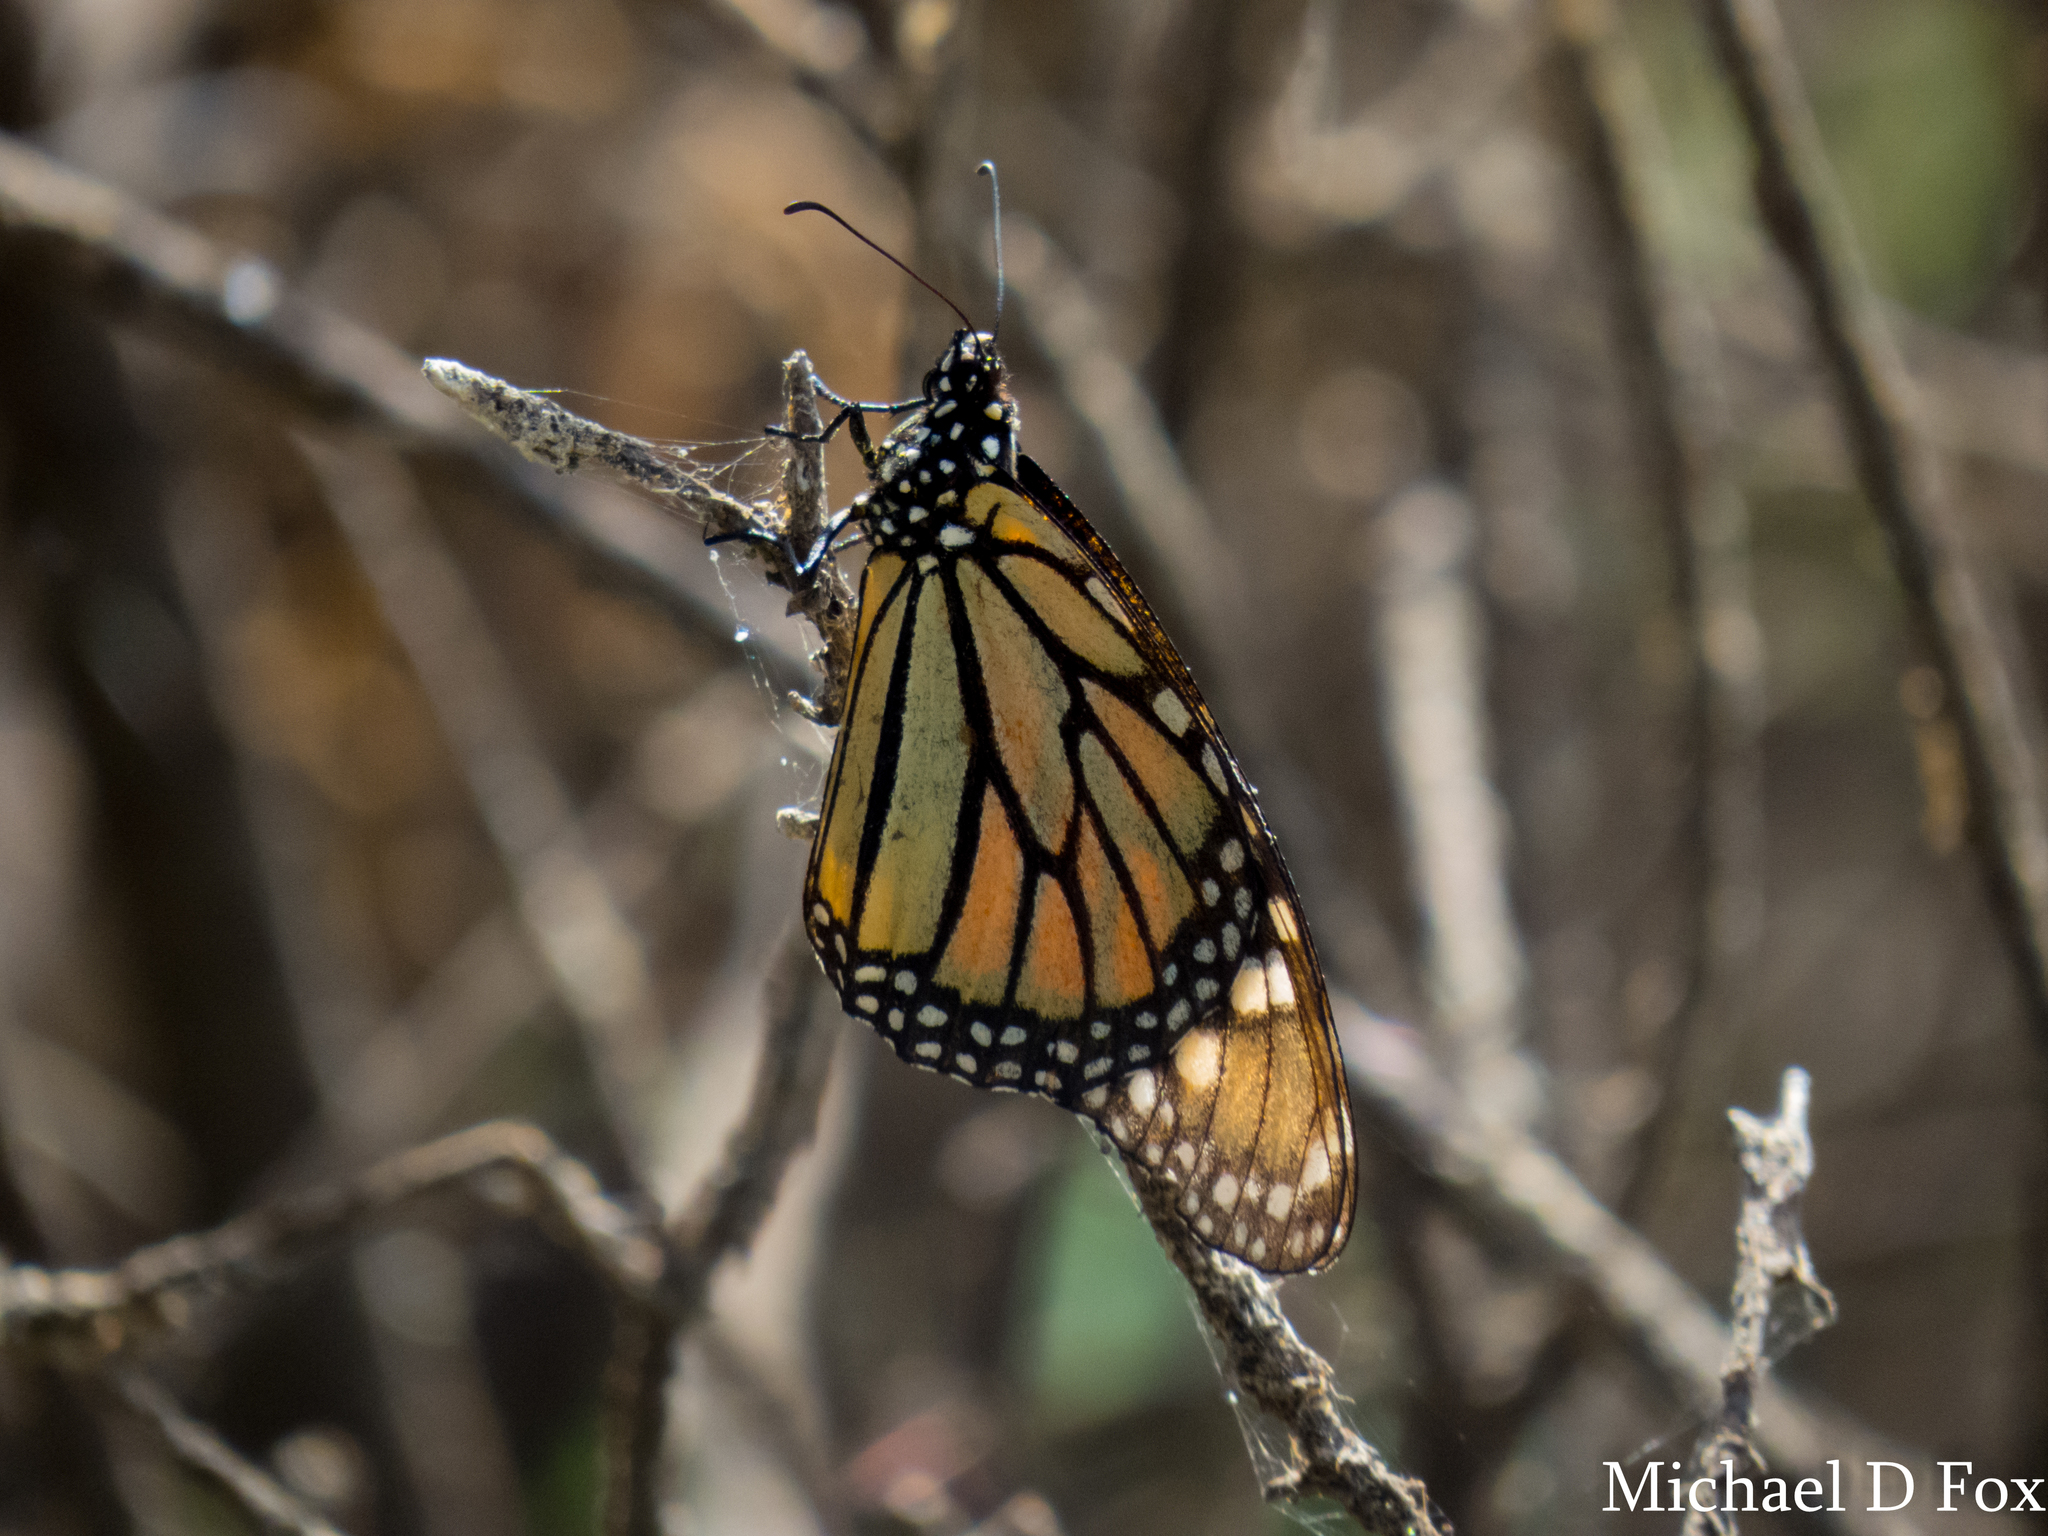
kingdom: Animalia
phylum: Arthropoda
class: Insecta
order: Lepidoptera
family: Nymphalidae
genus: Danaus
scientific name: Danaus plexippus
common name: Monarch
